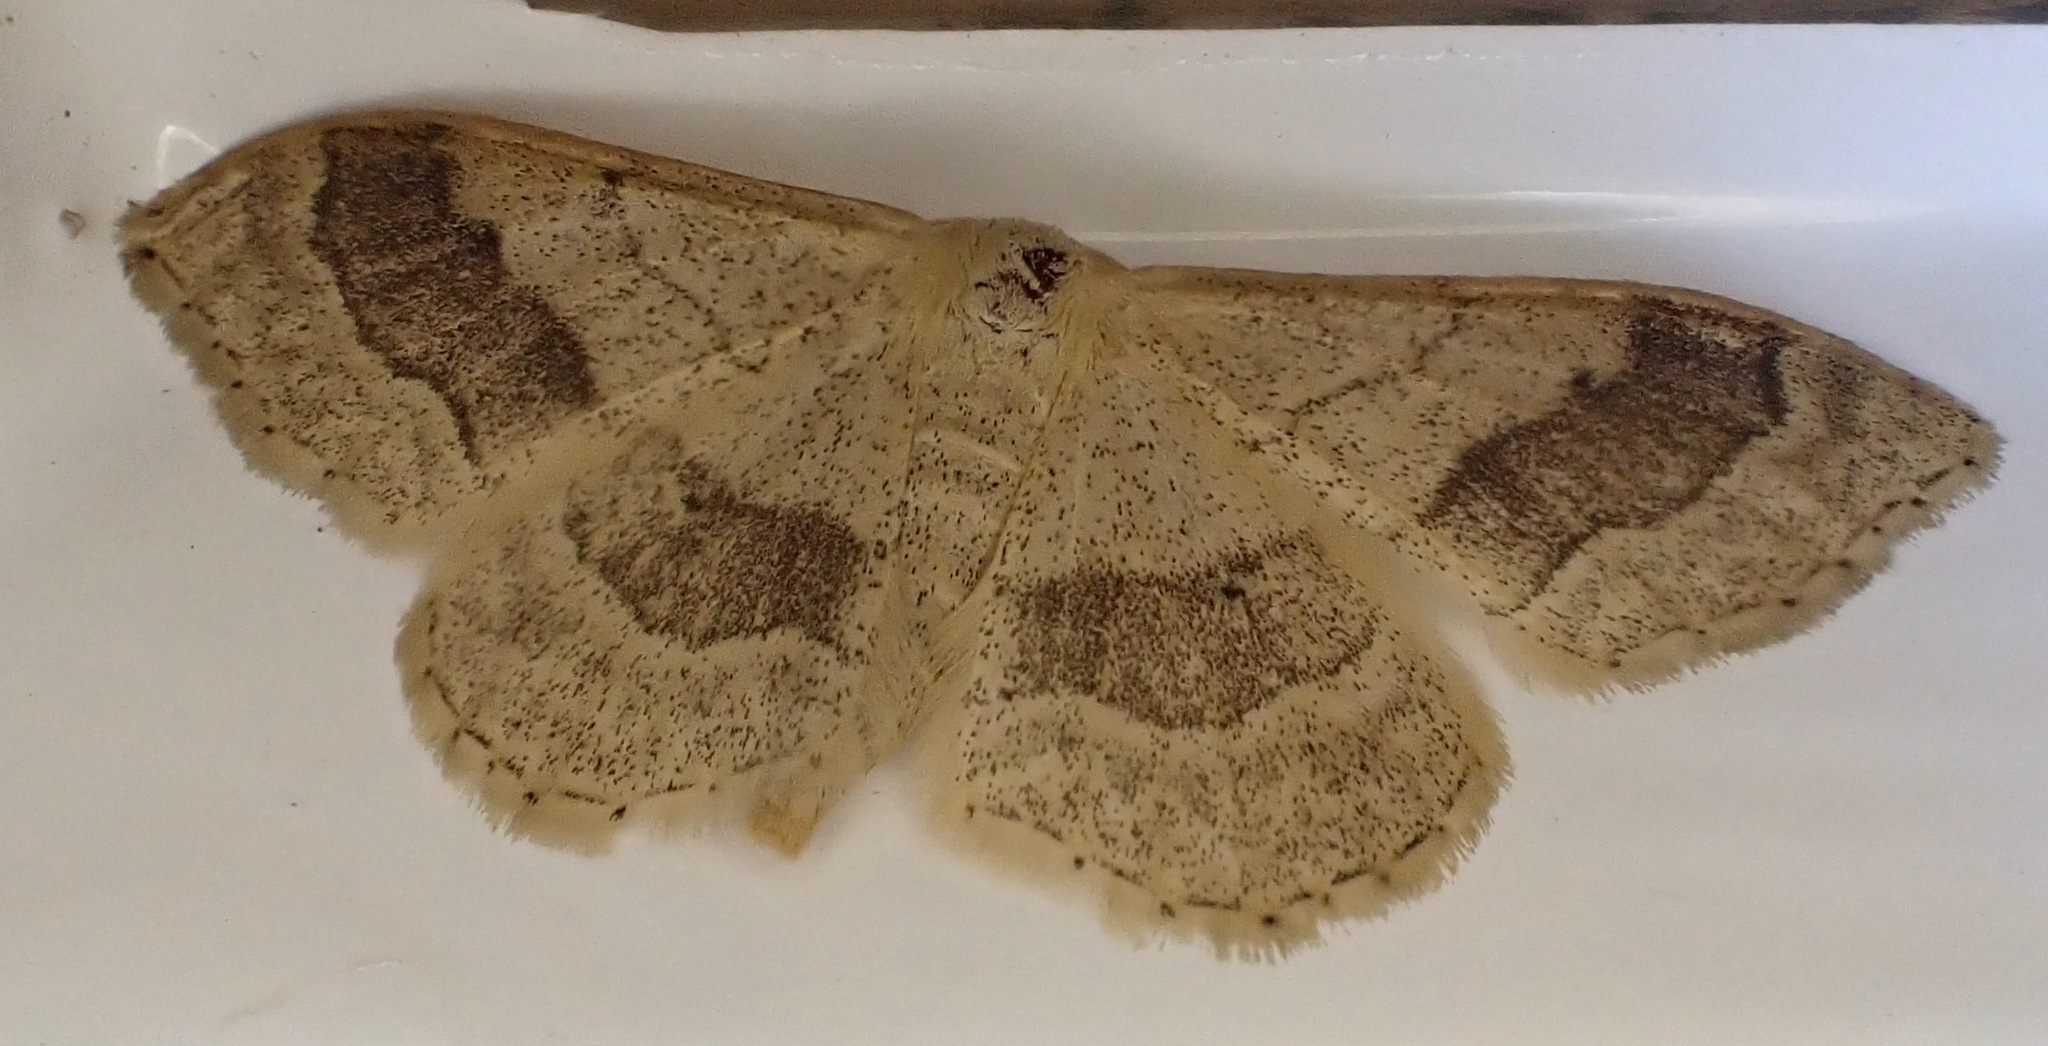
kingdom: Animalia
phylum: Arthropoda
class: Insecta
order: Lepidoptera
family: Geometridae
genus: Idaea
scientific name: Idaea aversata
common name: Riband wave
